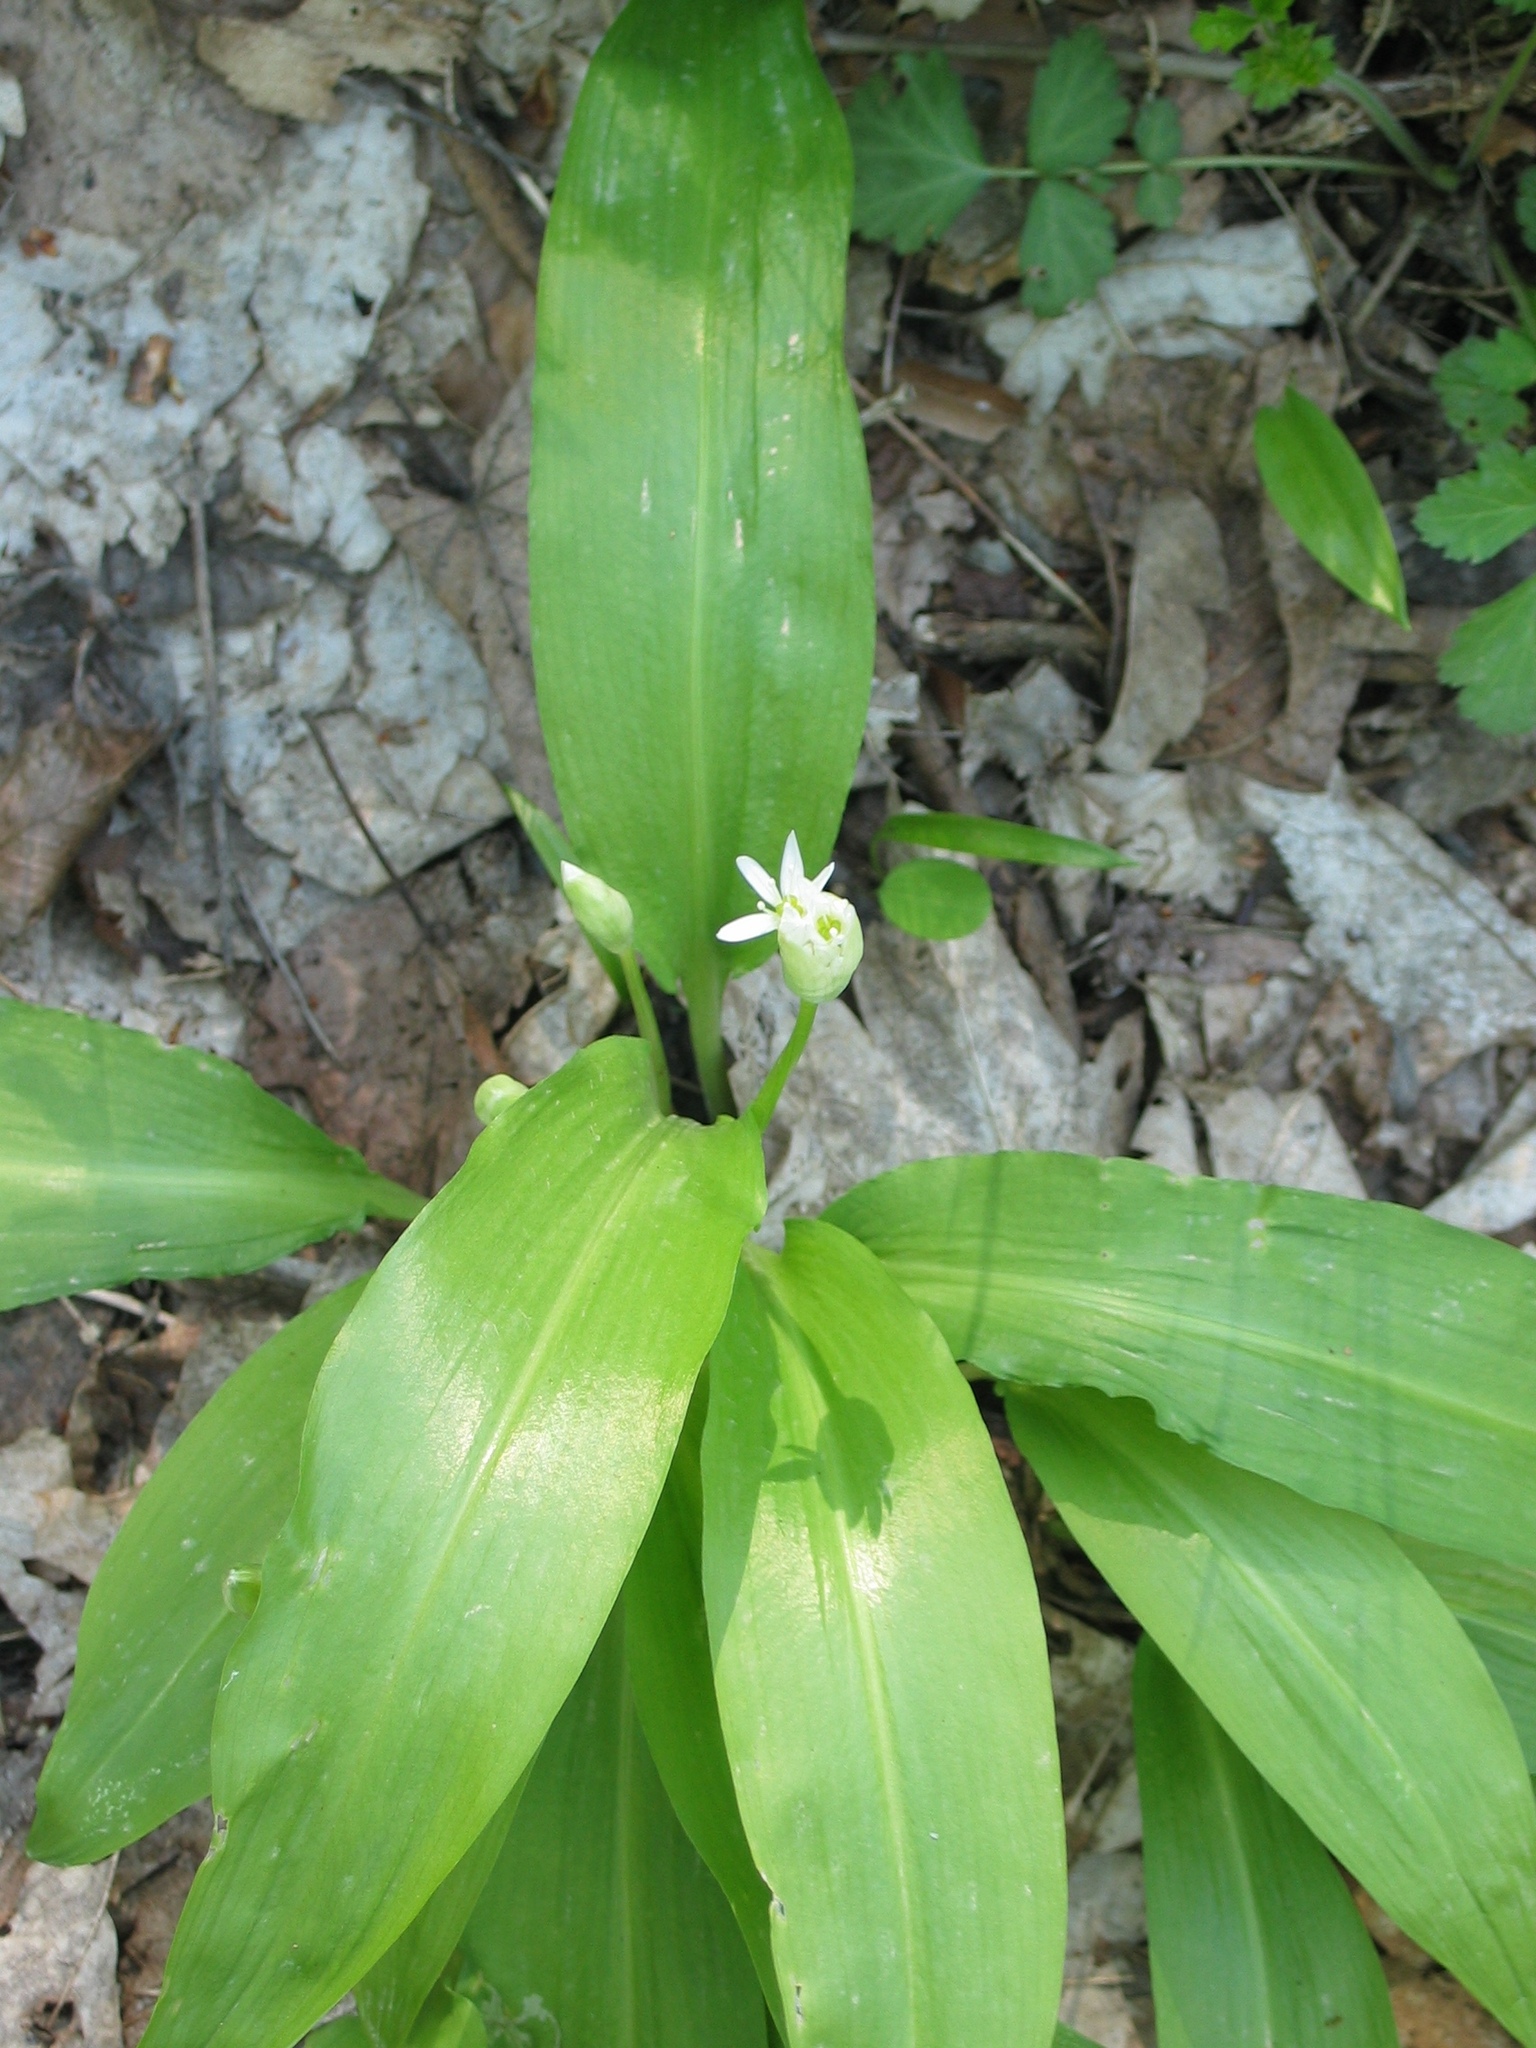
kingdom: Plantae
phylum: Tracheophyta
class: Liliopsida
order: Asparagales
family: Amaryllidaceae
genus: Allium
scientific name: Allium ursinum
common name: Ramsons
